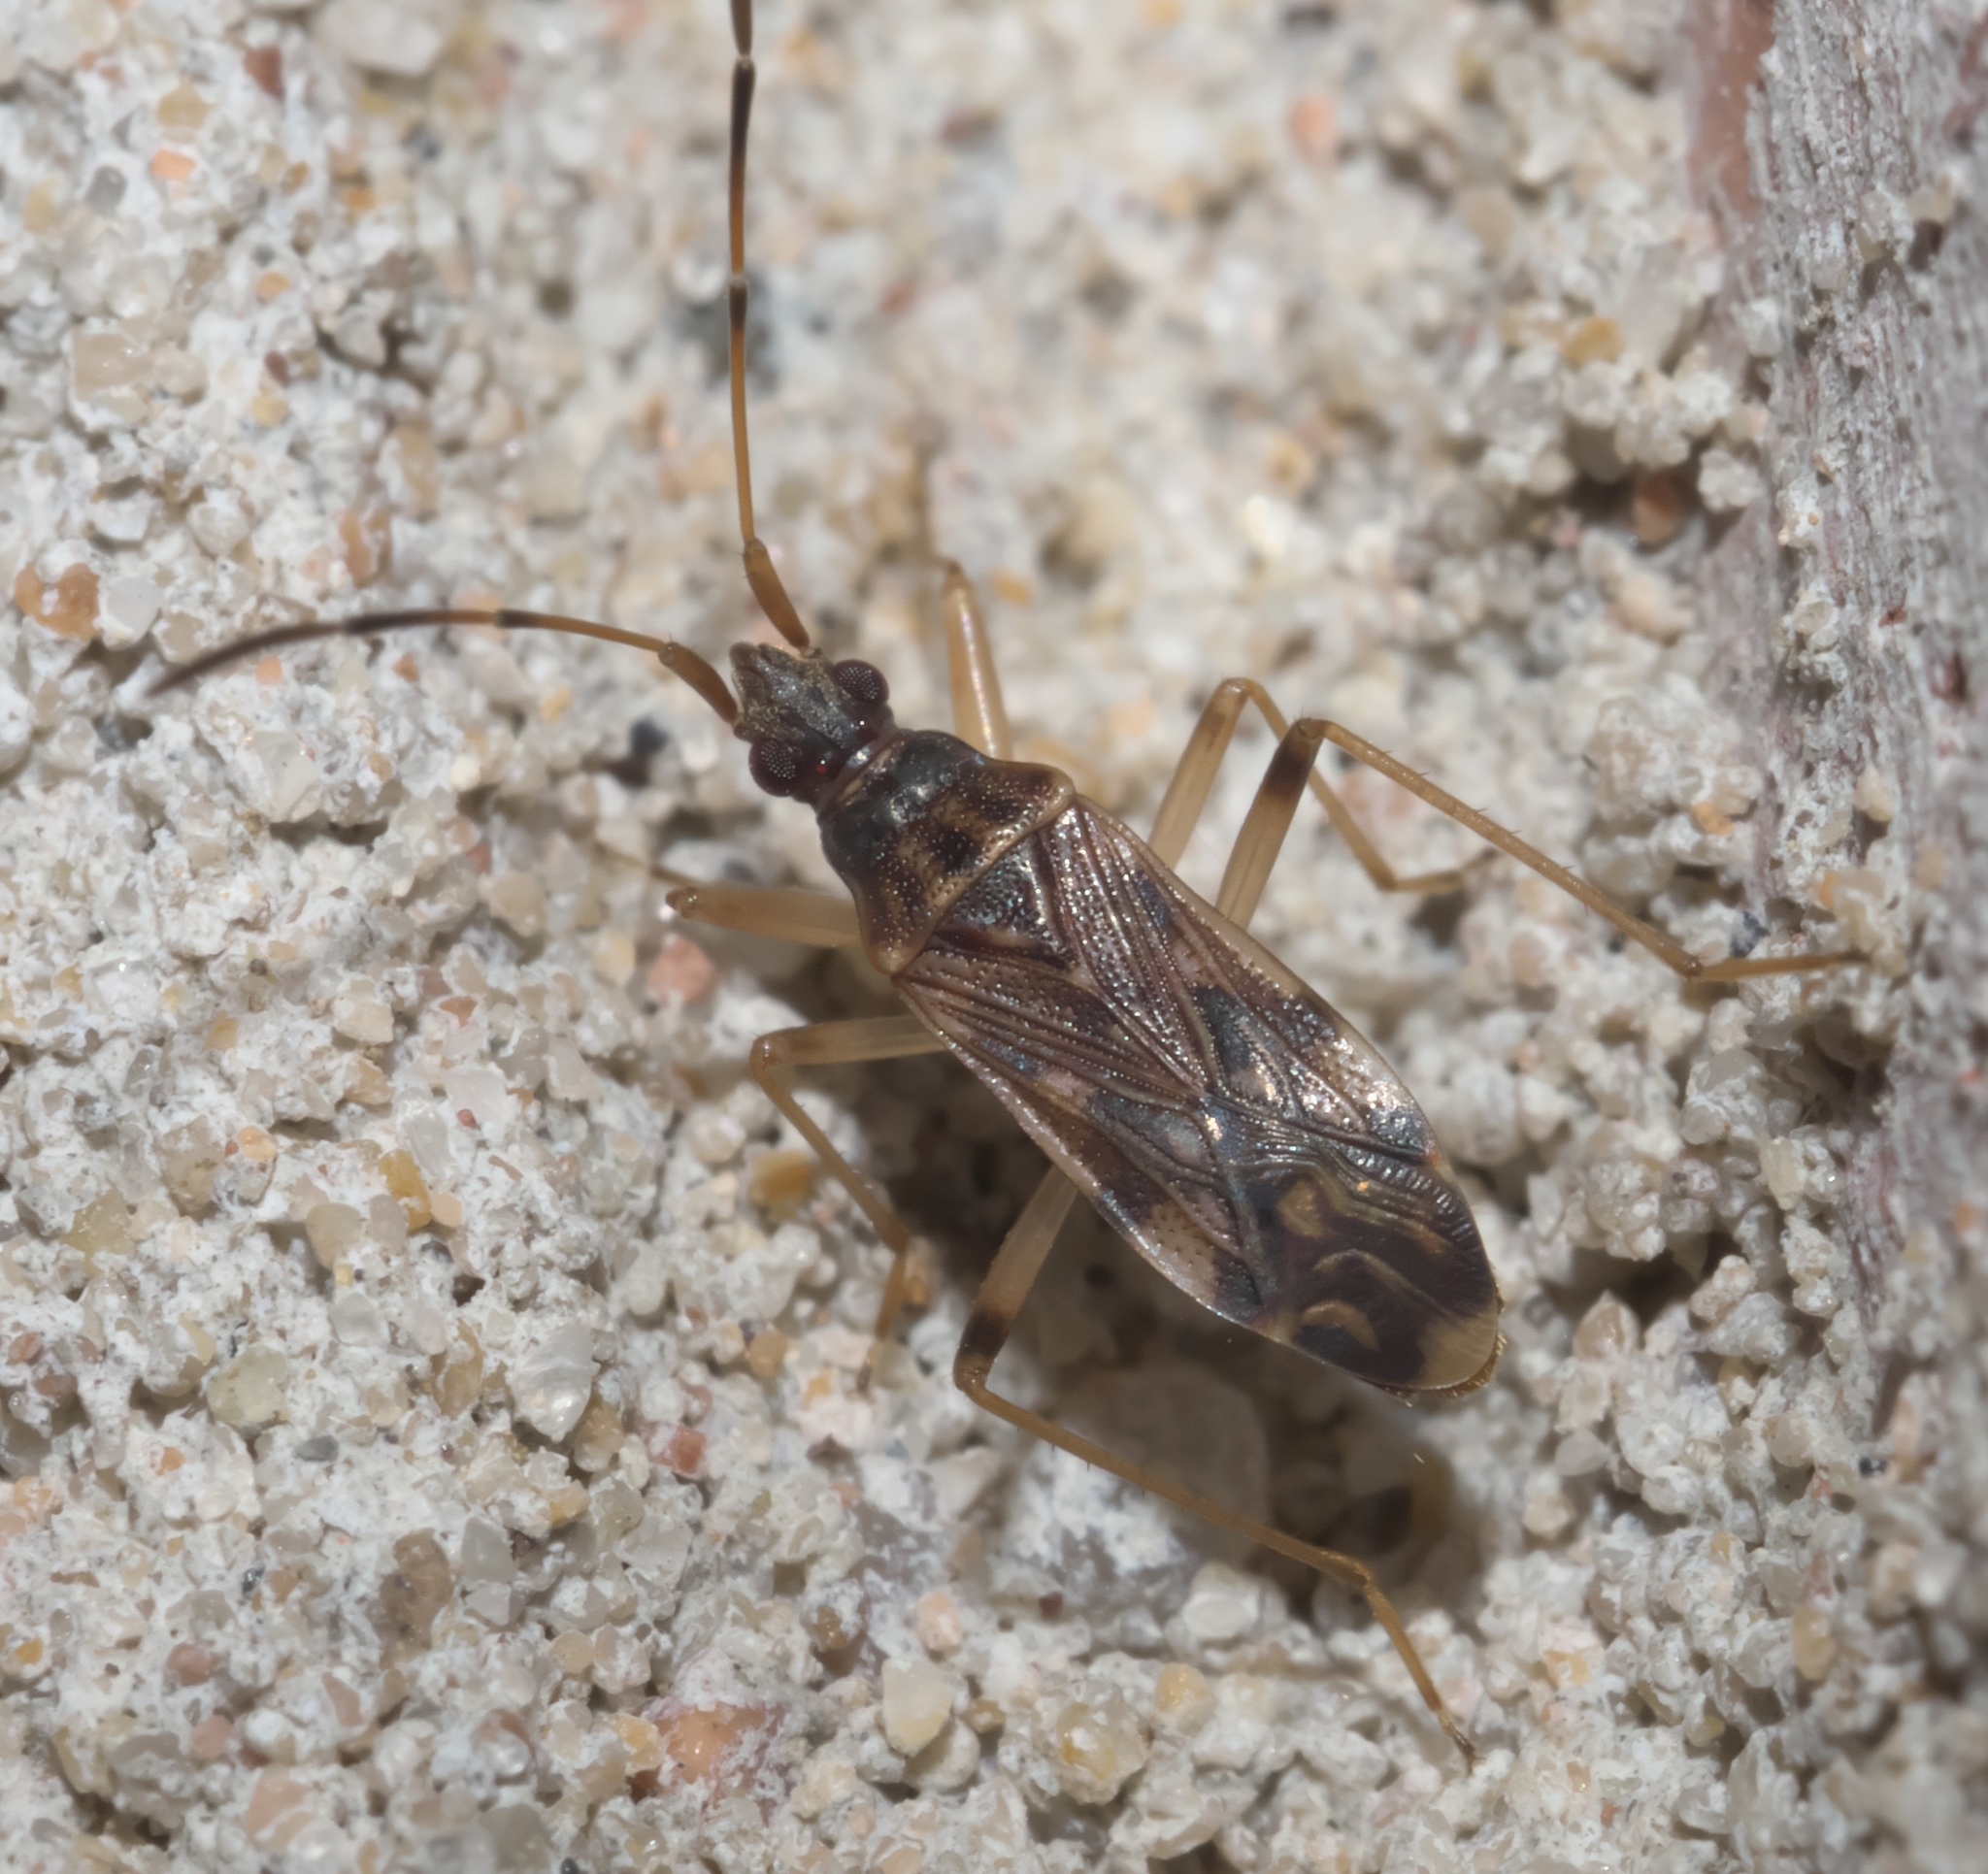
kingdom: Animalia
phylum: Arthropoda
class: Insecta
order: Hemiptera
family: Rhyparochromidae
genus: Ozophora
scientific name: Ozophora salsaverdeae
